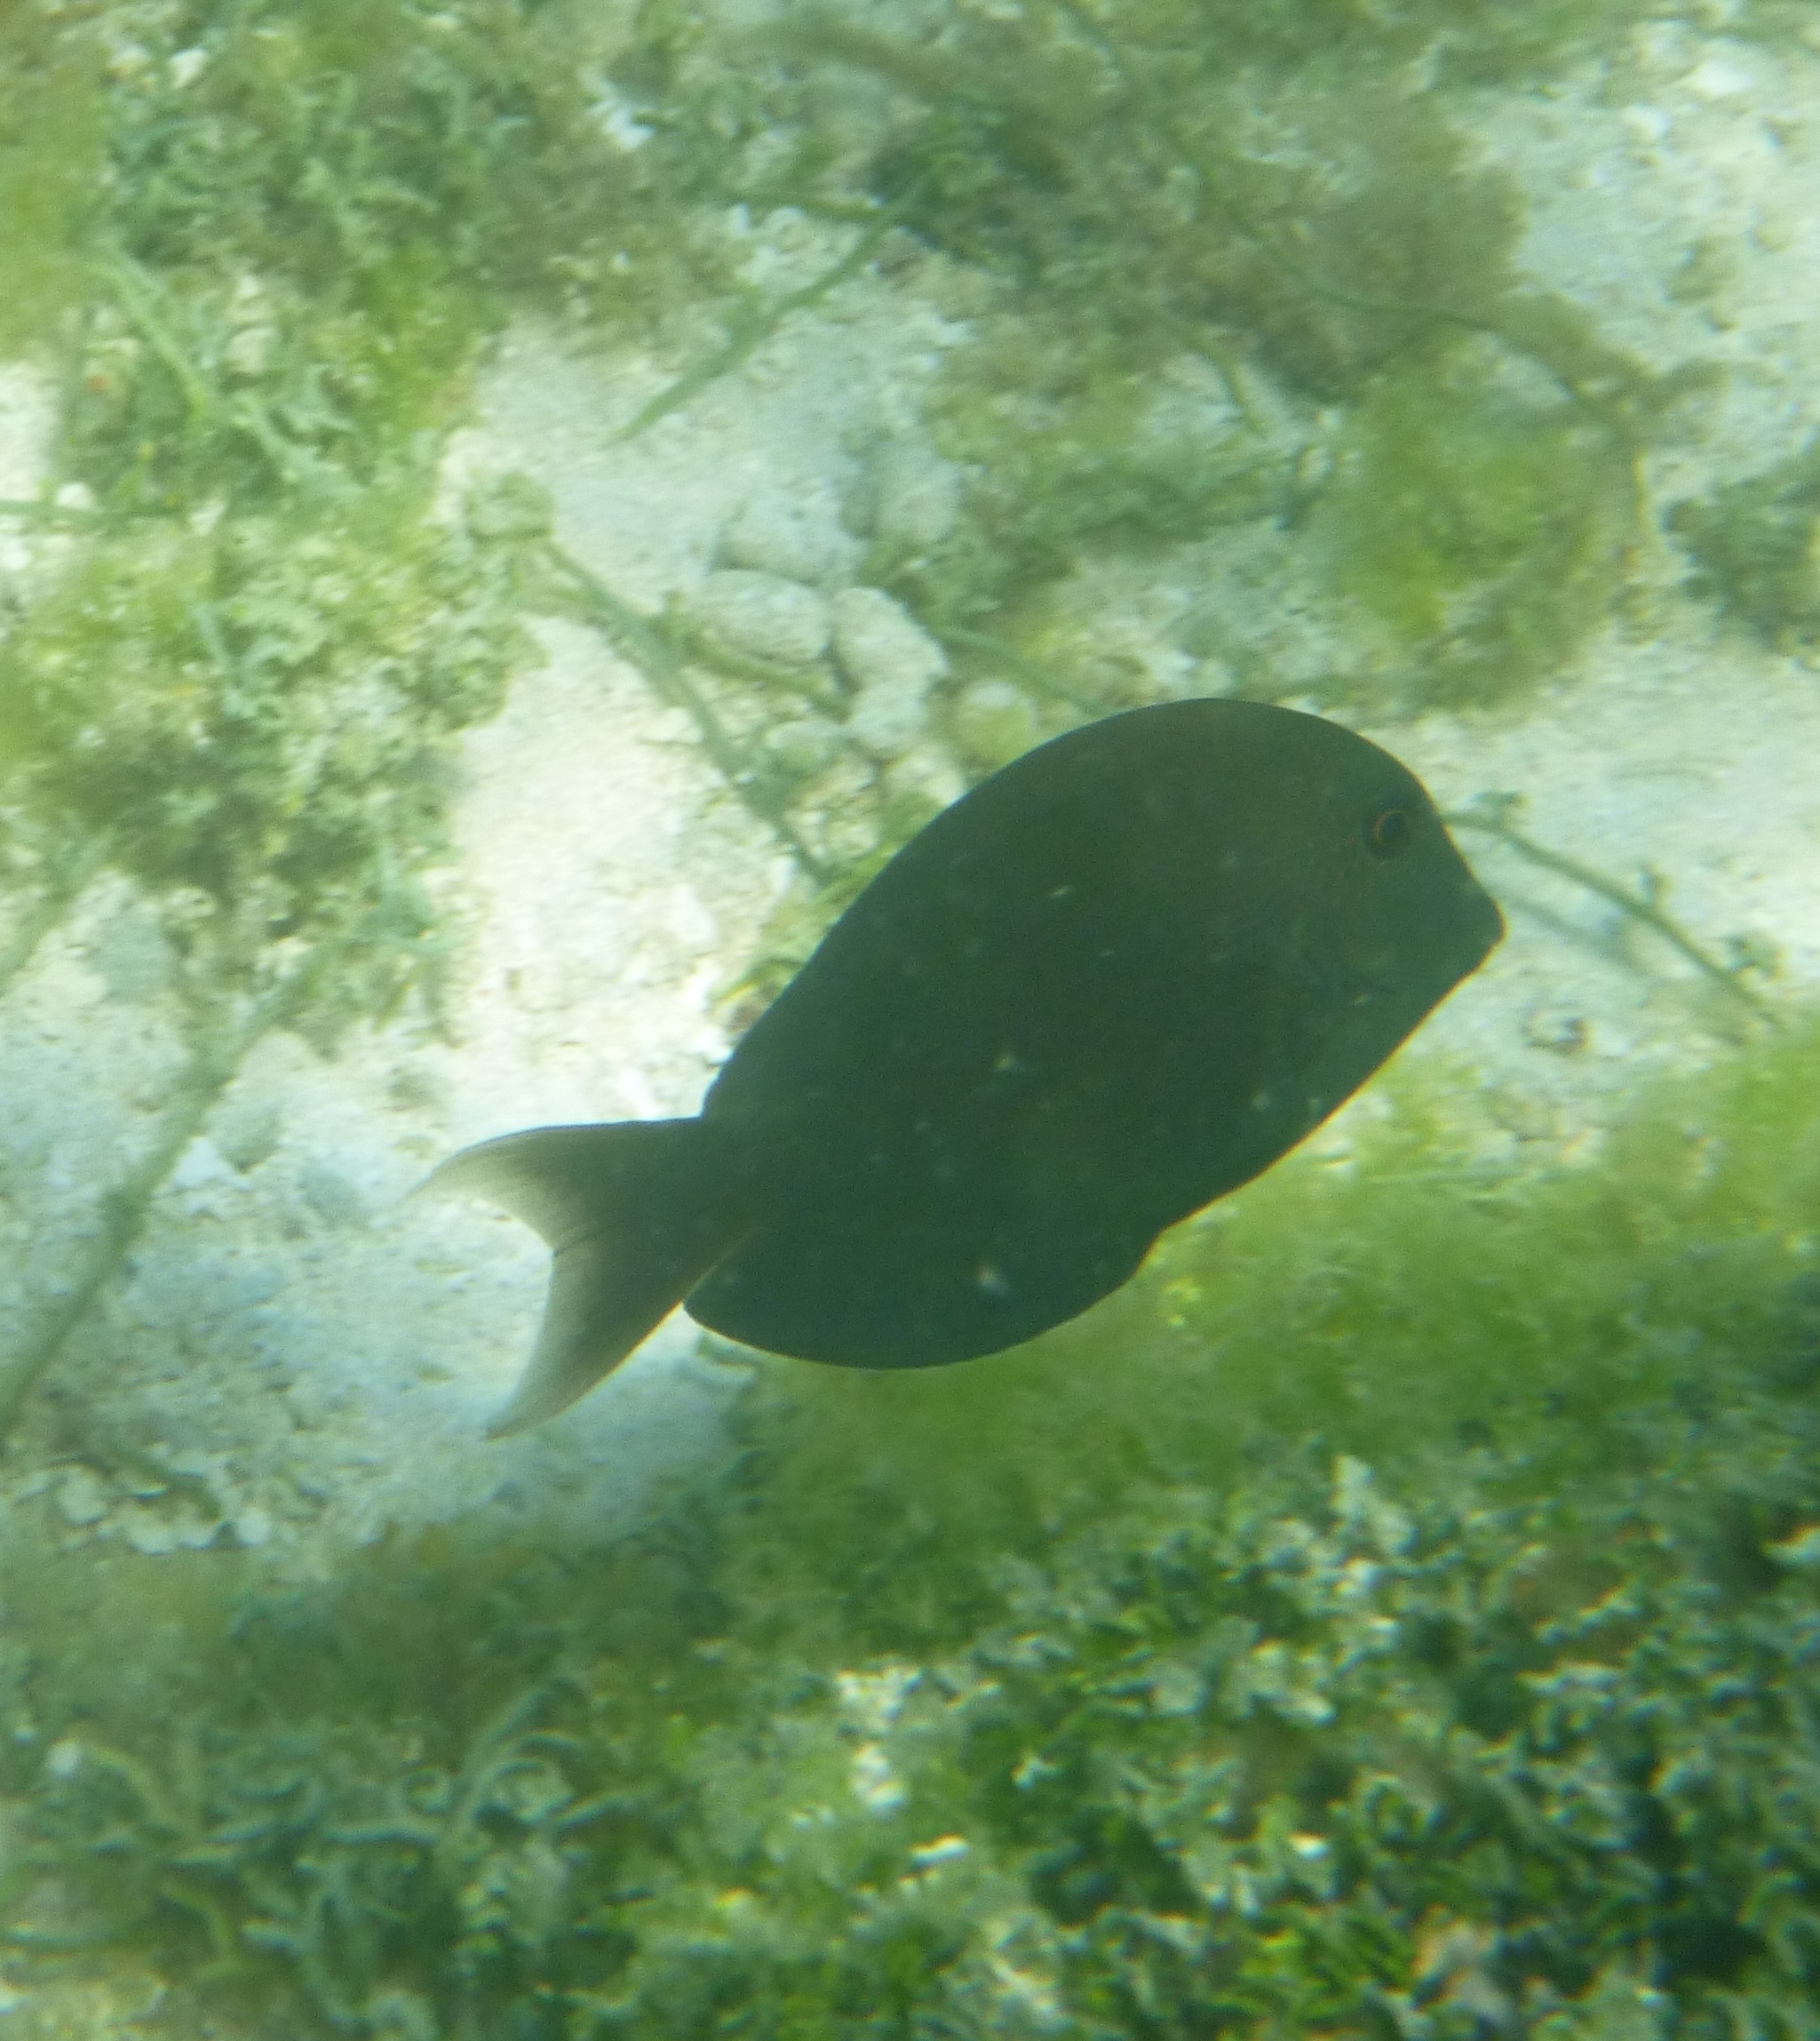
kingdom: Animalia
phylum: Chordata
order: Perciformes
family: Acanthuridae
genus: Ctenochaetus
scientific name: Ctenochaetus striatus
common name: Bristle-toothed surgeonfish
